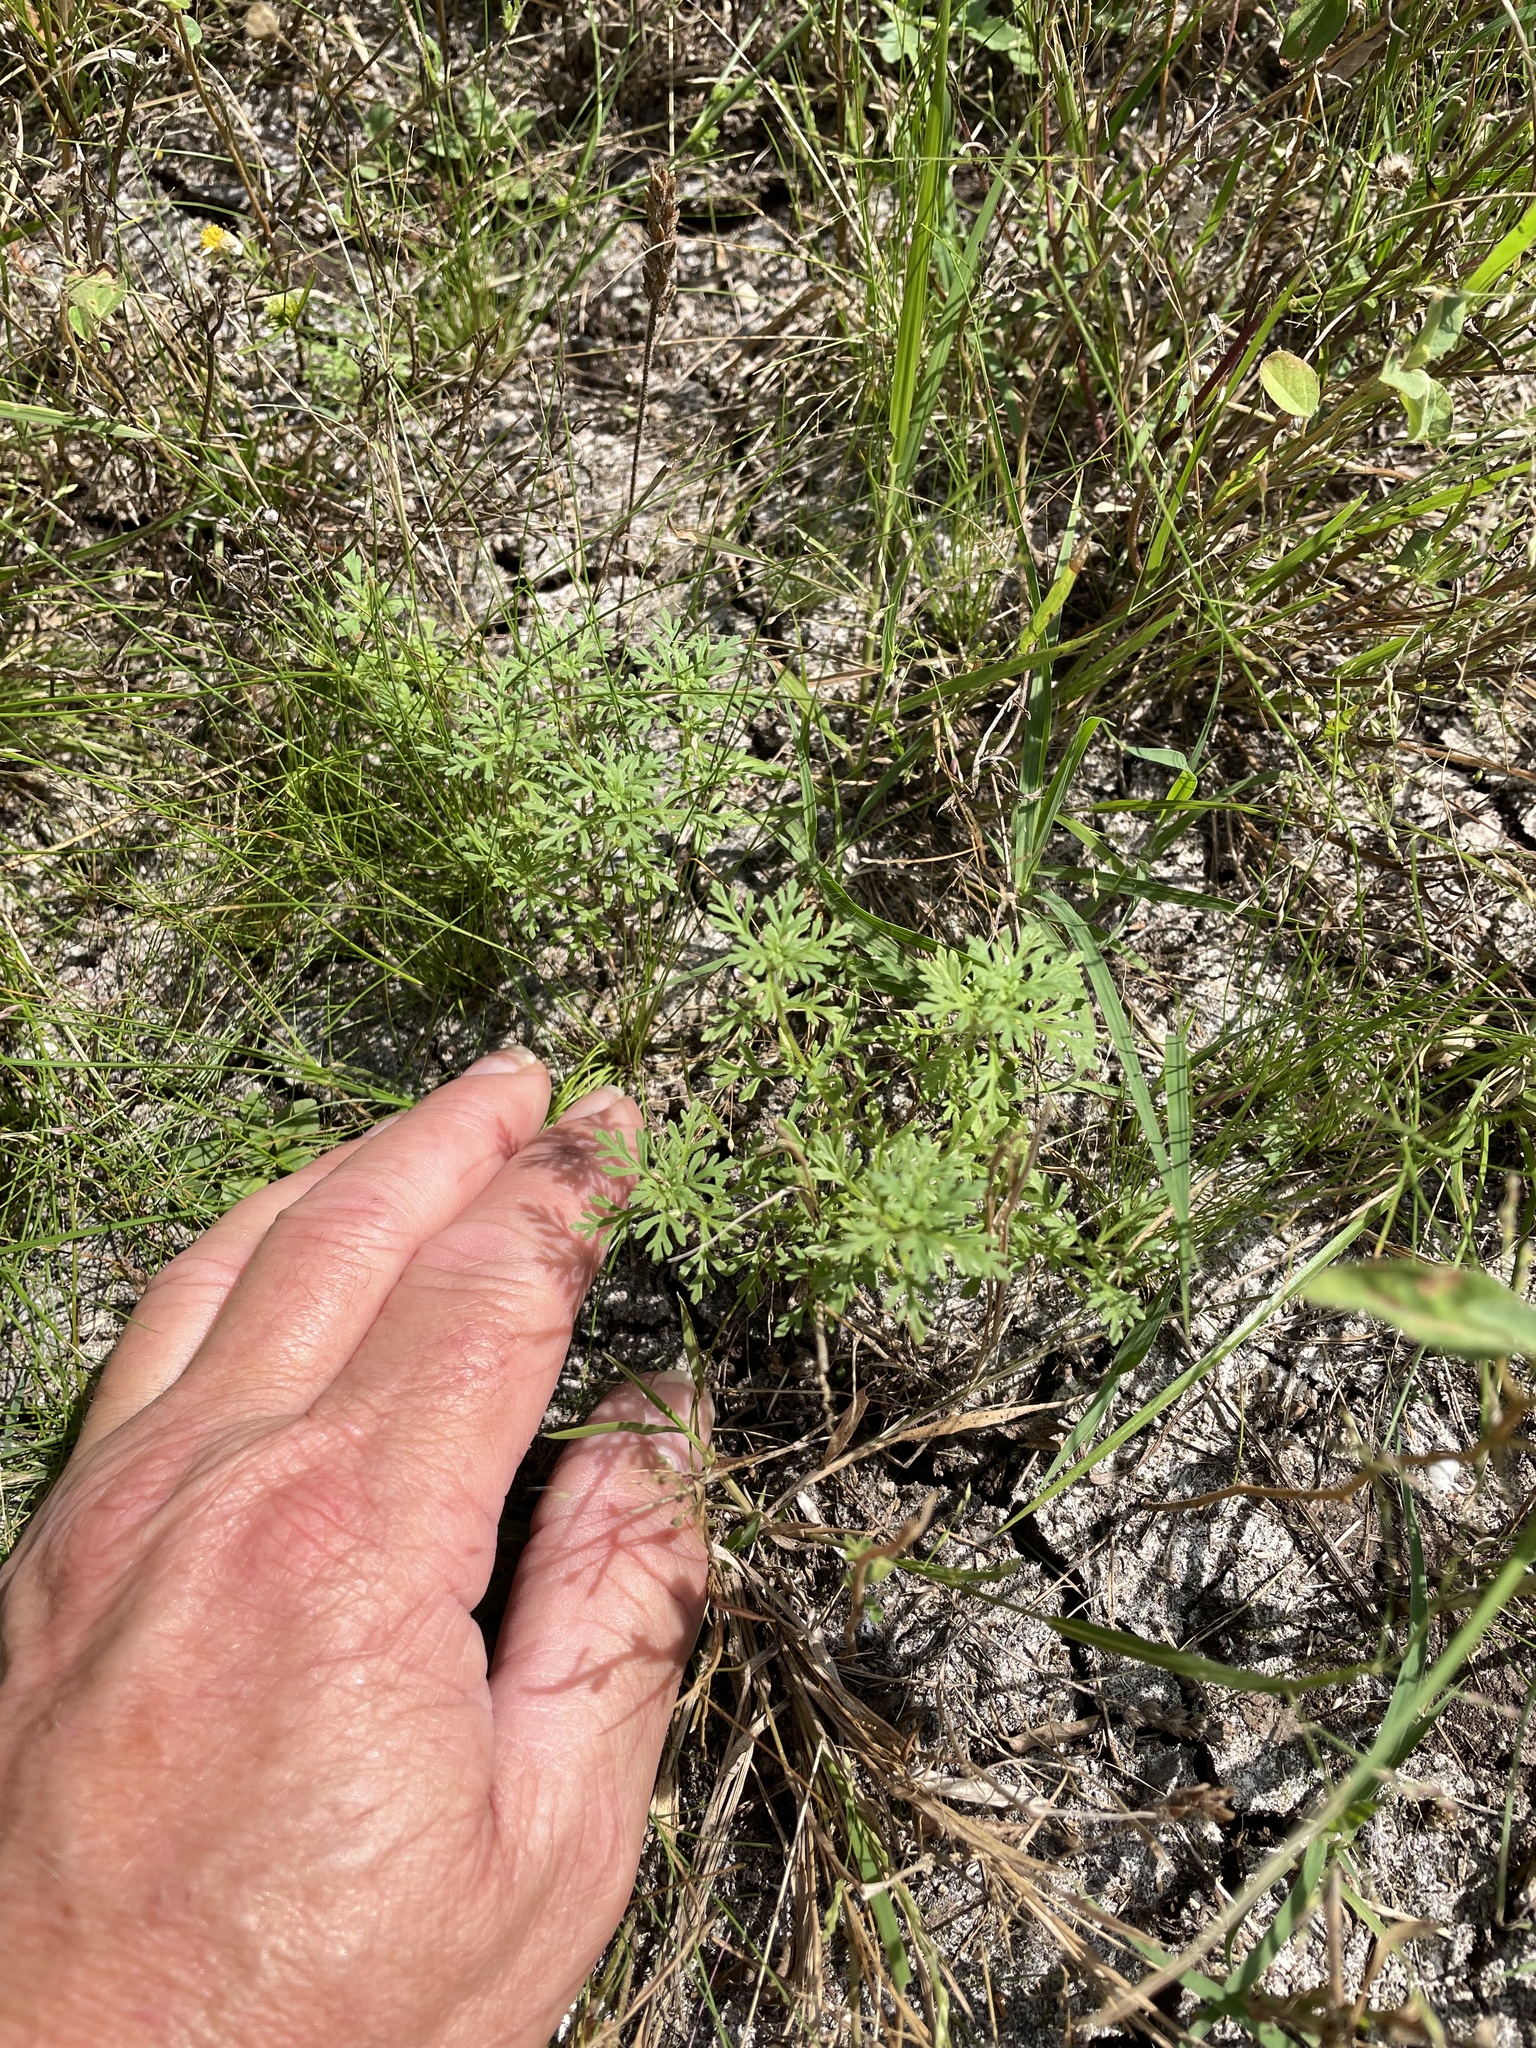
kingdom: Plantae
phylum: Tracheophyta
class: Magnoliopsida
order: Lamiales
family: Plantaginaceae
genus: Leucospora
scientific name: Leucospora multifida
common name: Narrow-leaf paleseed
